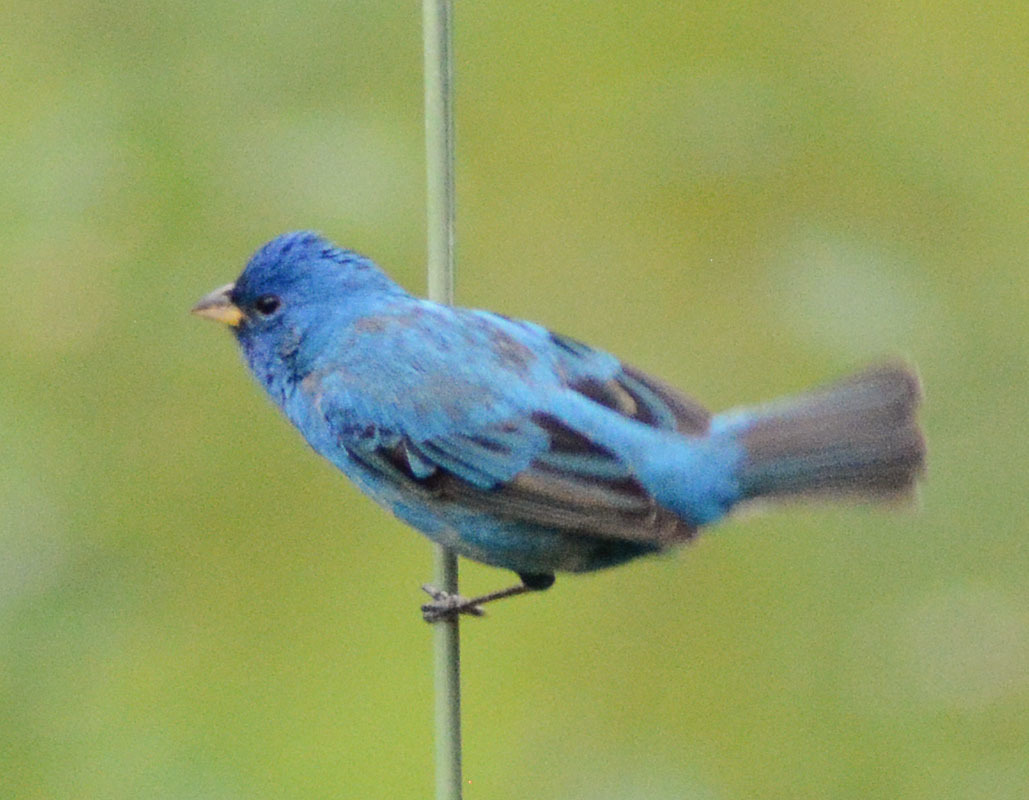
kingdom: Animalia
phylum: Chordata
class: Aves
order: Passeriformes
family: Cardinalidae
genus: Passerina
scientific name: Passerina cyanea
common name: Indigo bunting
